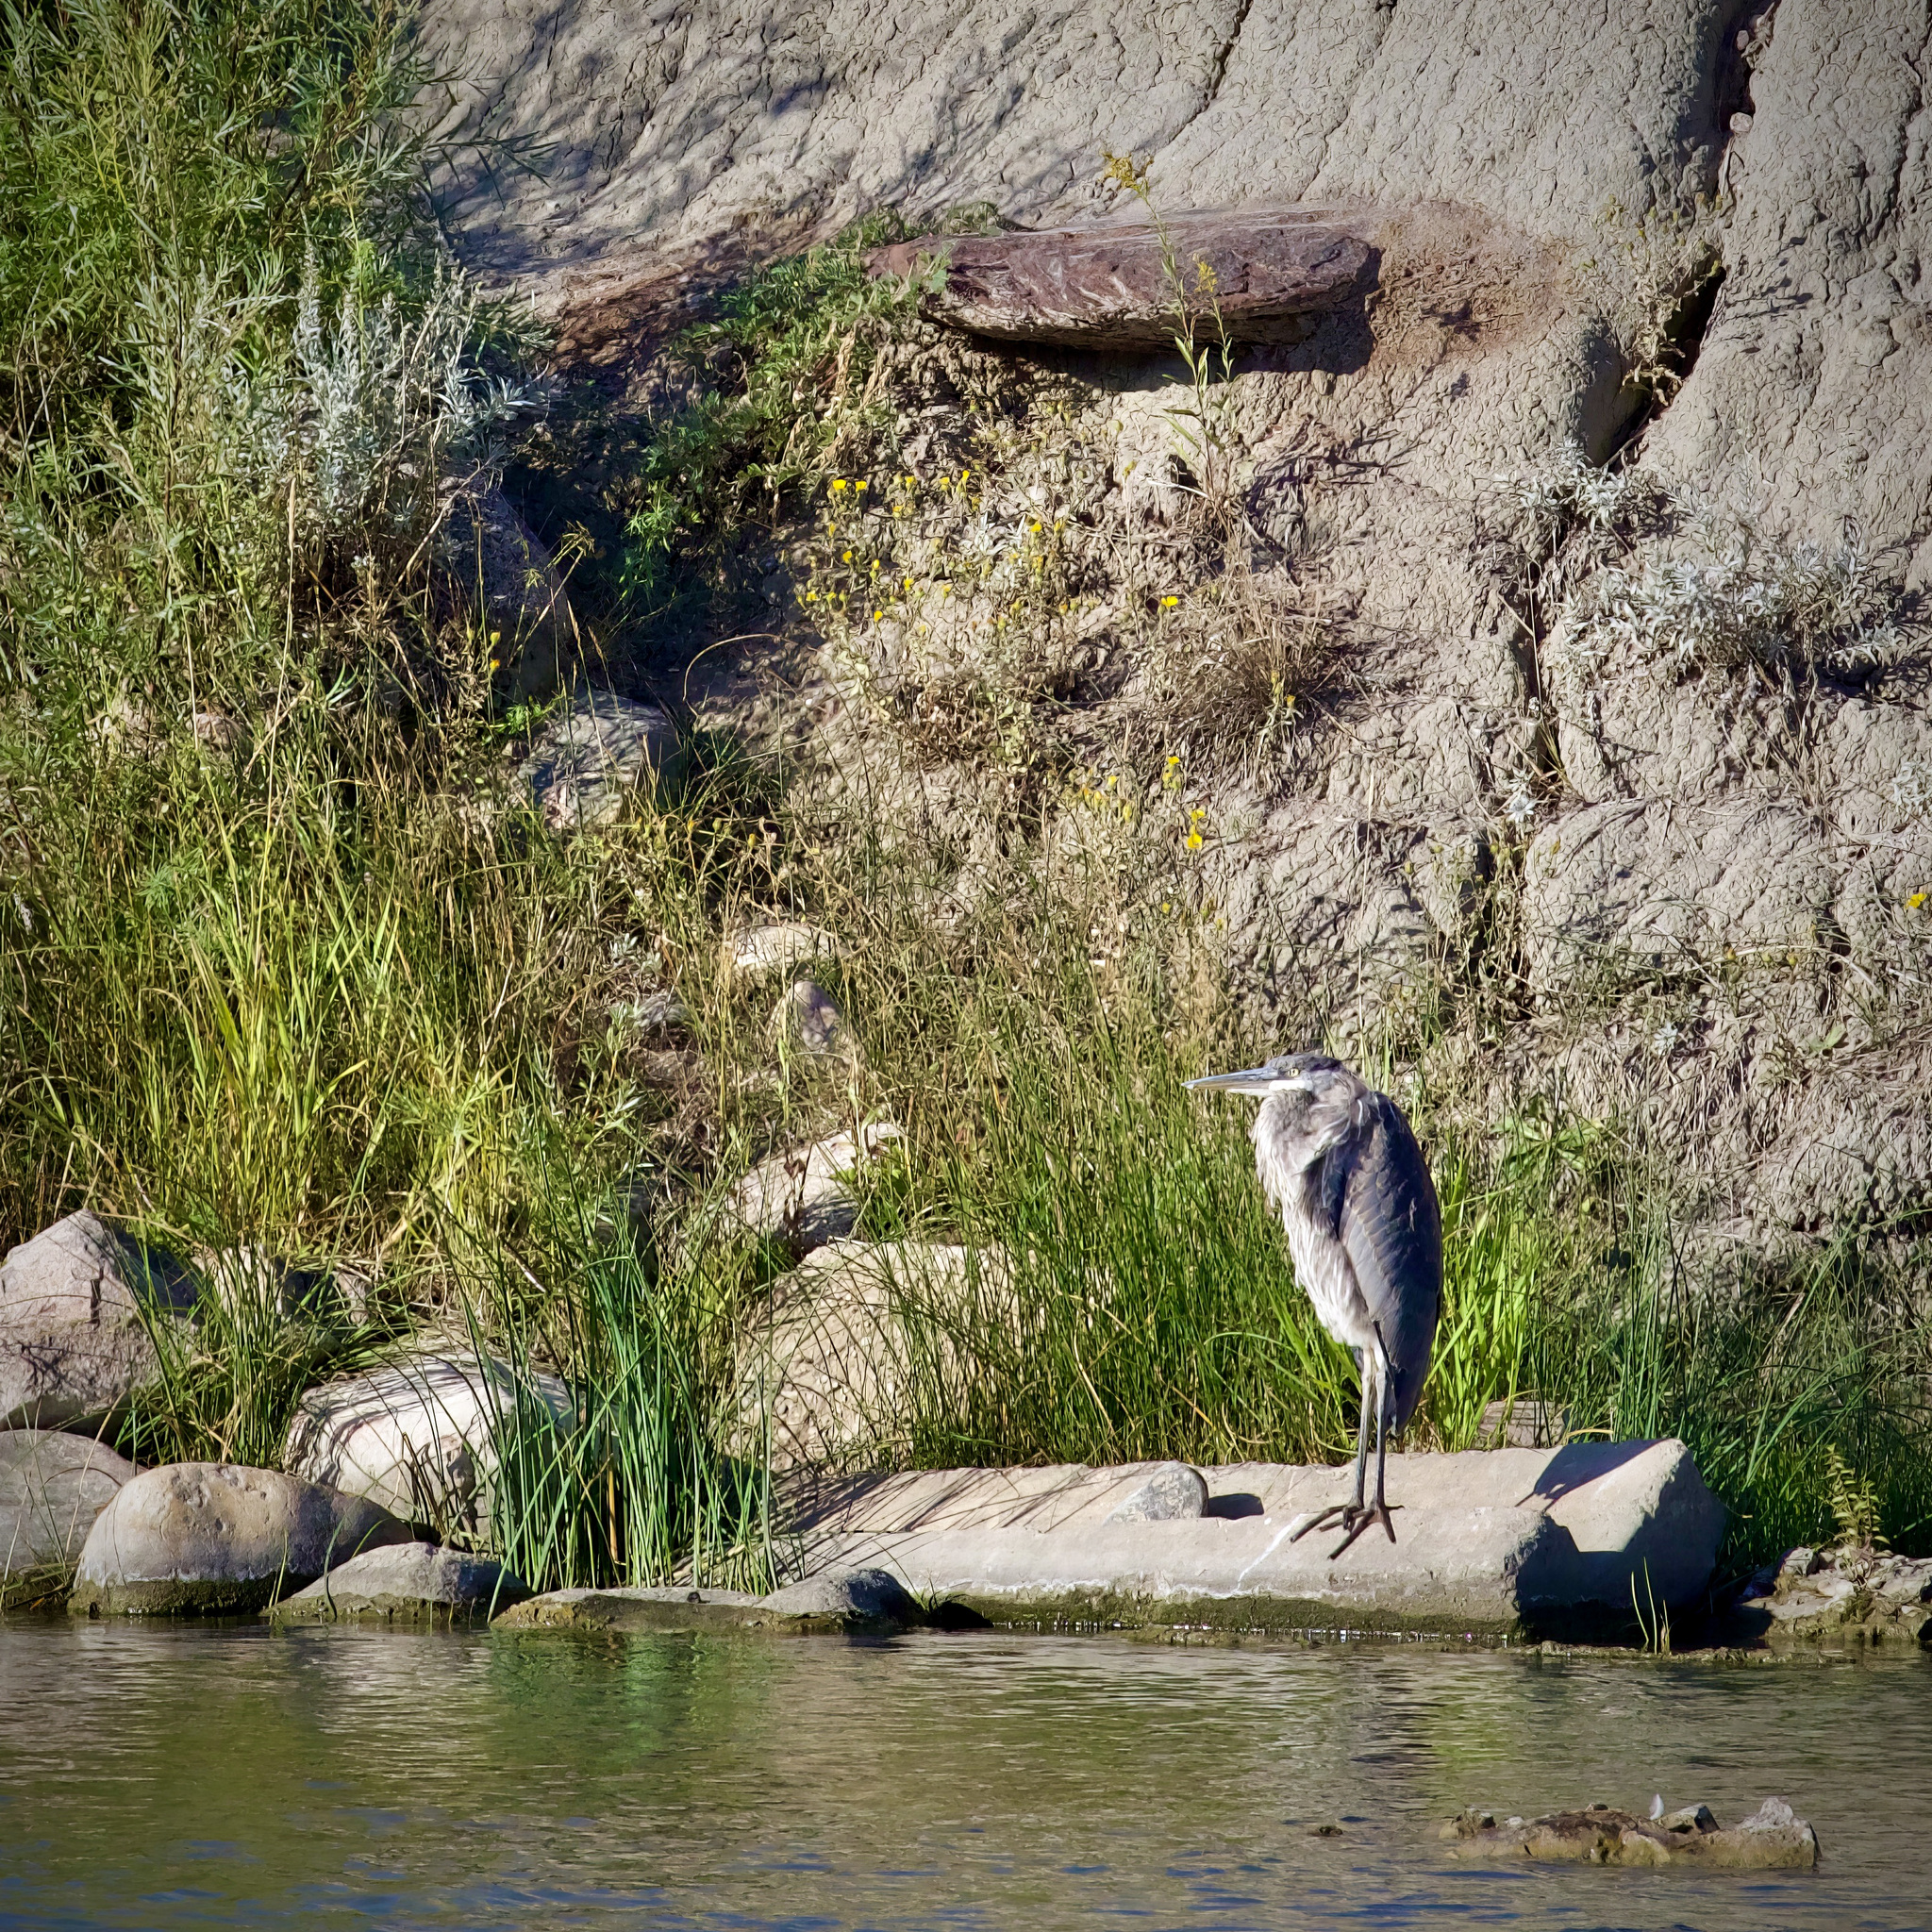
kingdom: Animalia
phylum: Chordata
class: Aves
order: Pelecaniformes
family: Ardeidae
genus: Ardea
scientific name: Ardea herodias
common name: Great blue heron
